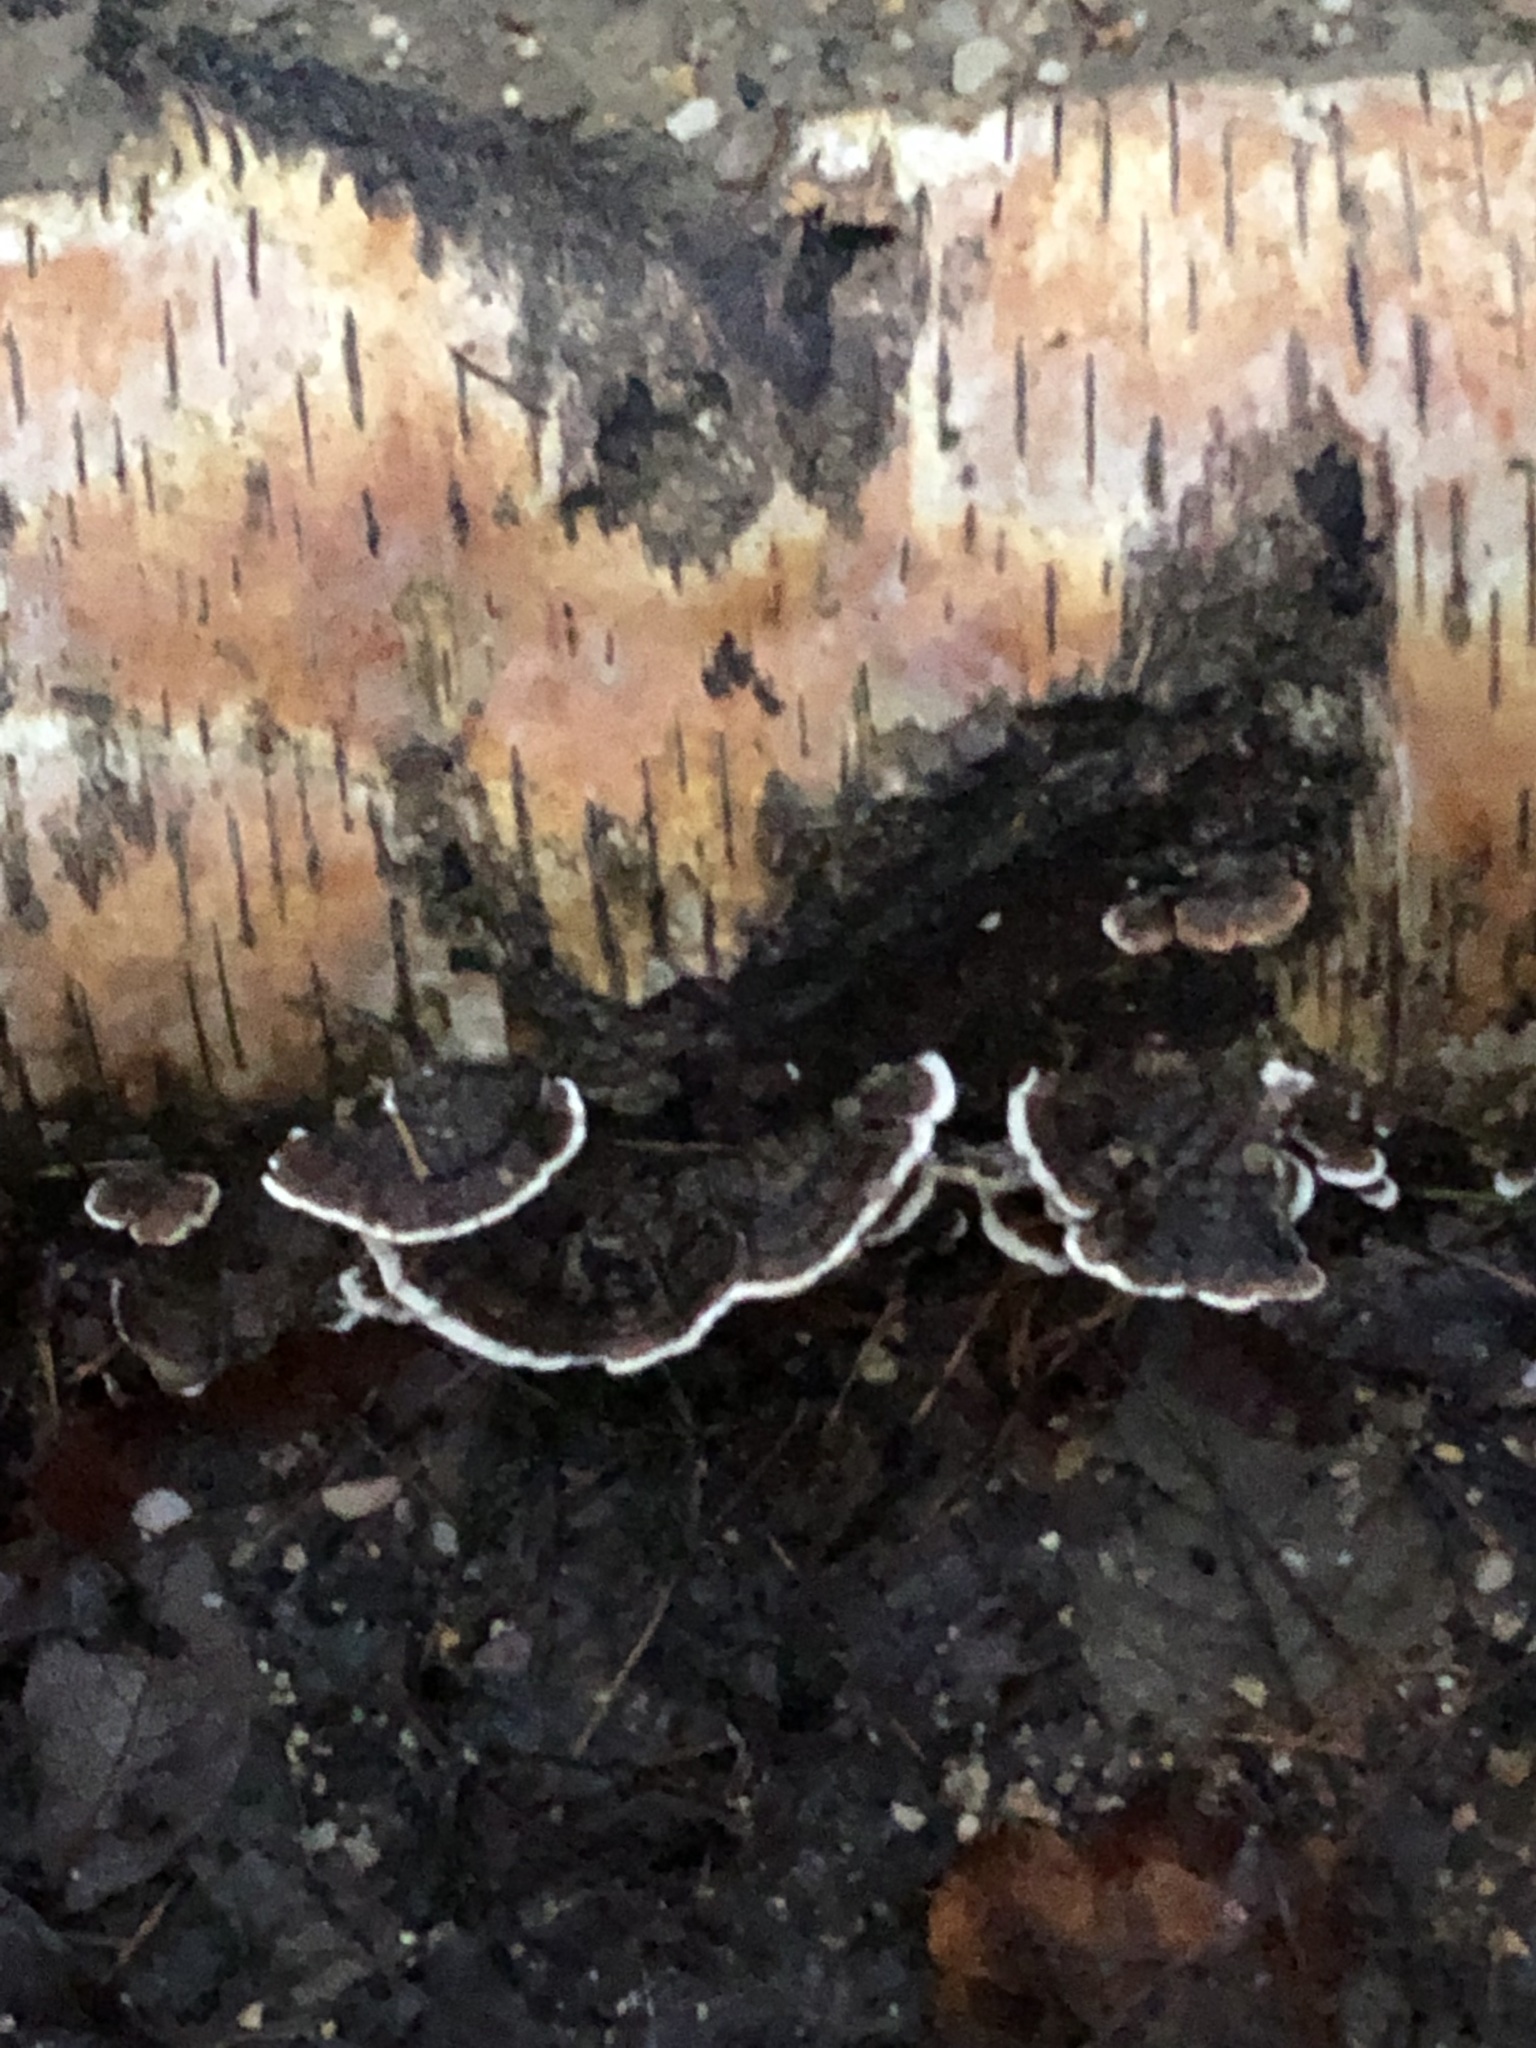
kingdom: Fungi
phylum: Basidiomycota
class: Agaricomycetes
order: Polyporales
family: Polyporaceae
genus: Trametes
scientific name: Trametes versicolor
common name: Turkeytail
